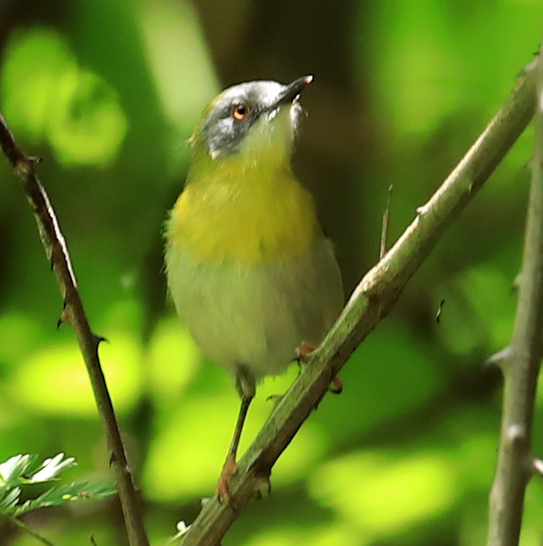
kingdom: Animalia
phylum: Chordata
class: Aves
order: Passeriformes
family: Cisticolidae
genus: Apalis
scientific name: Apalis flavida
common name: Yellow-breasted apalis
